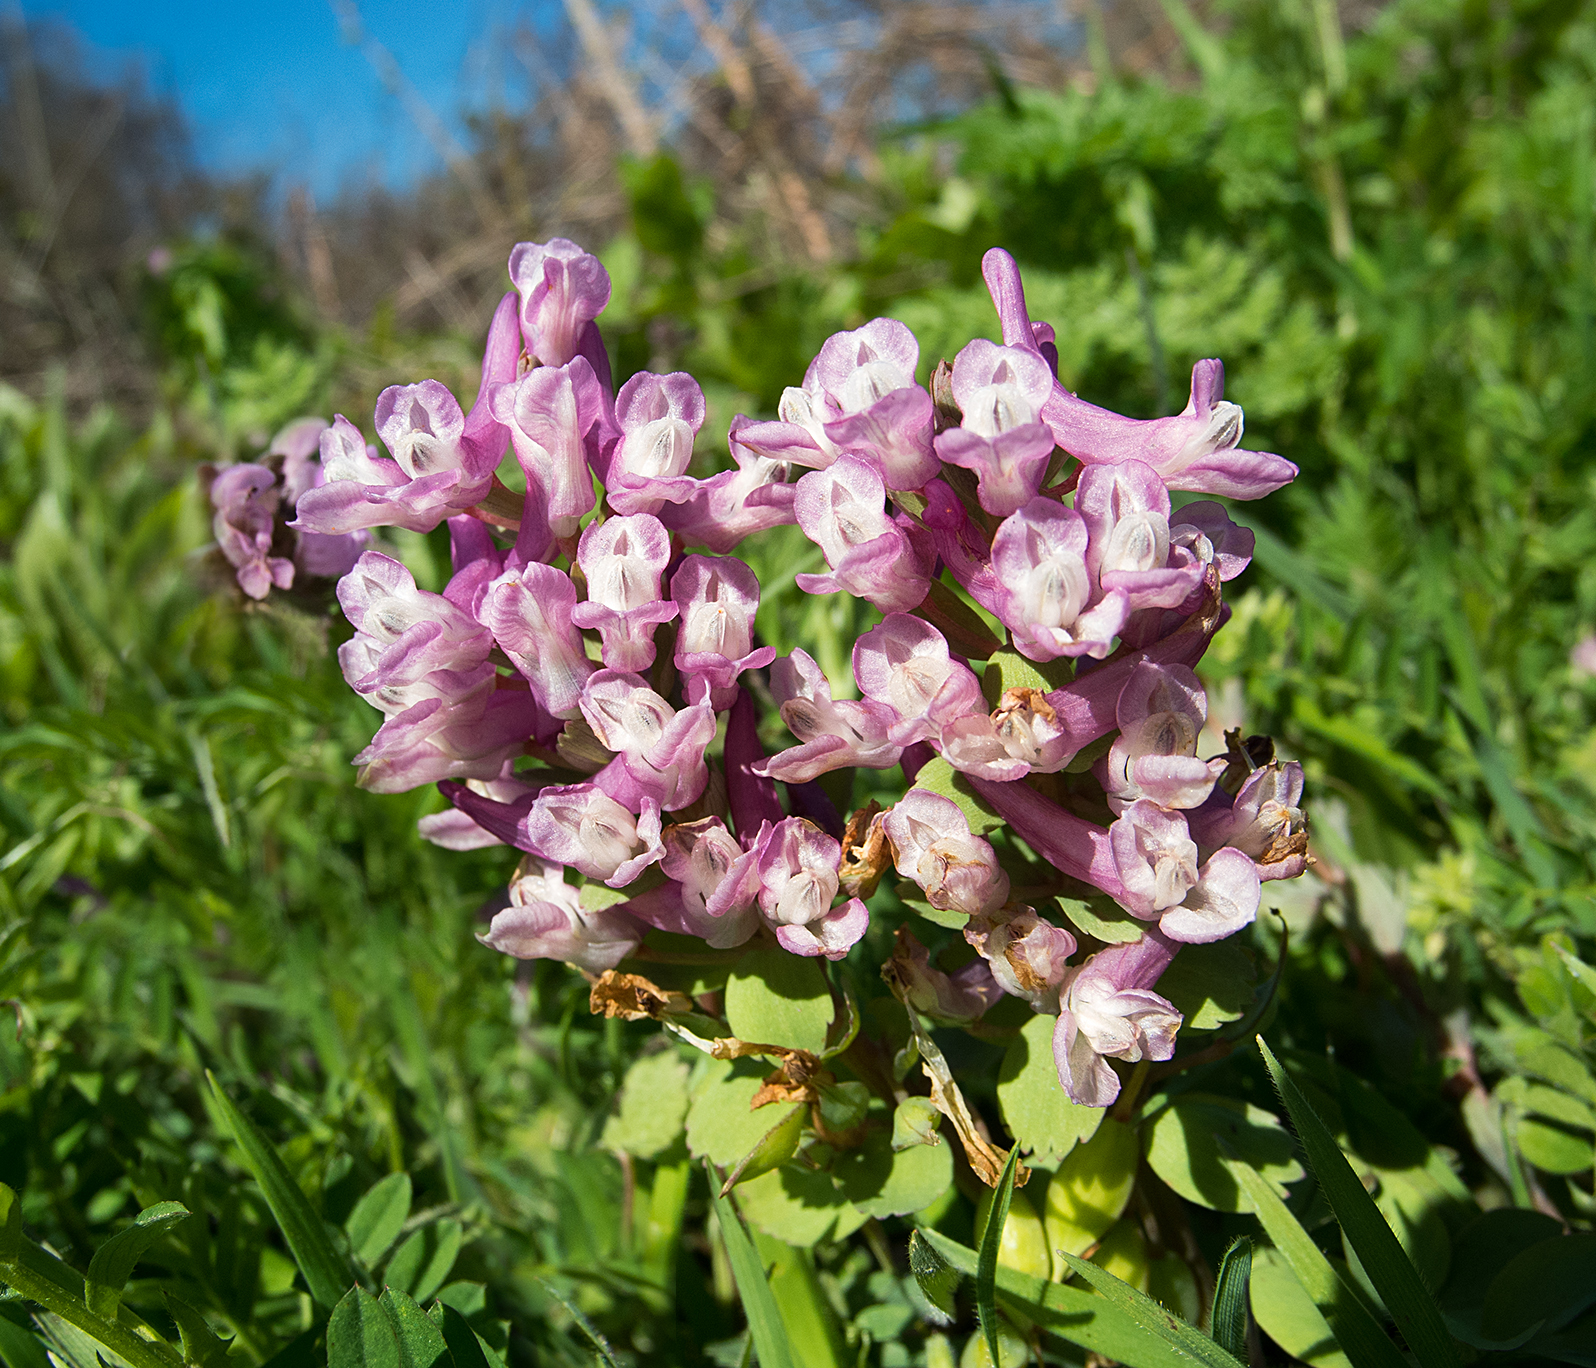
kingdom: Plantae
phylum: Tracheophyta
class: Magnoliopsida
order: Ranunculales
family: Papaveraceae
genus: Corydalis
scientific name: Corydalis solida
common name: Bird-in-a-bush
